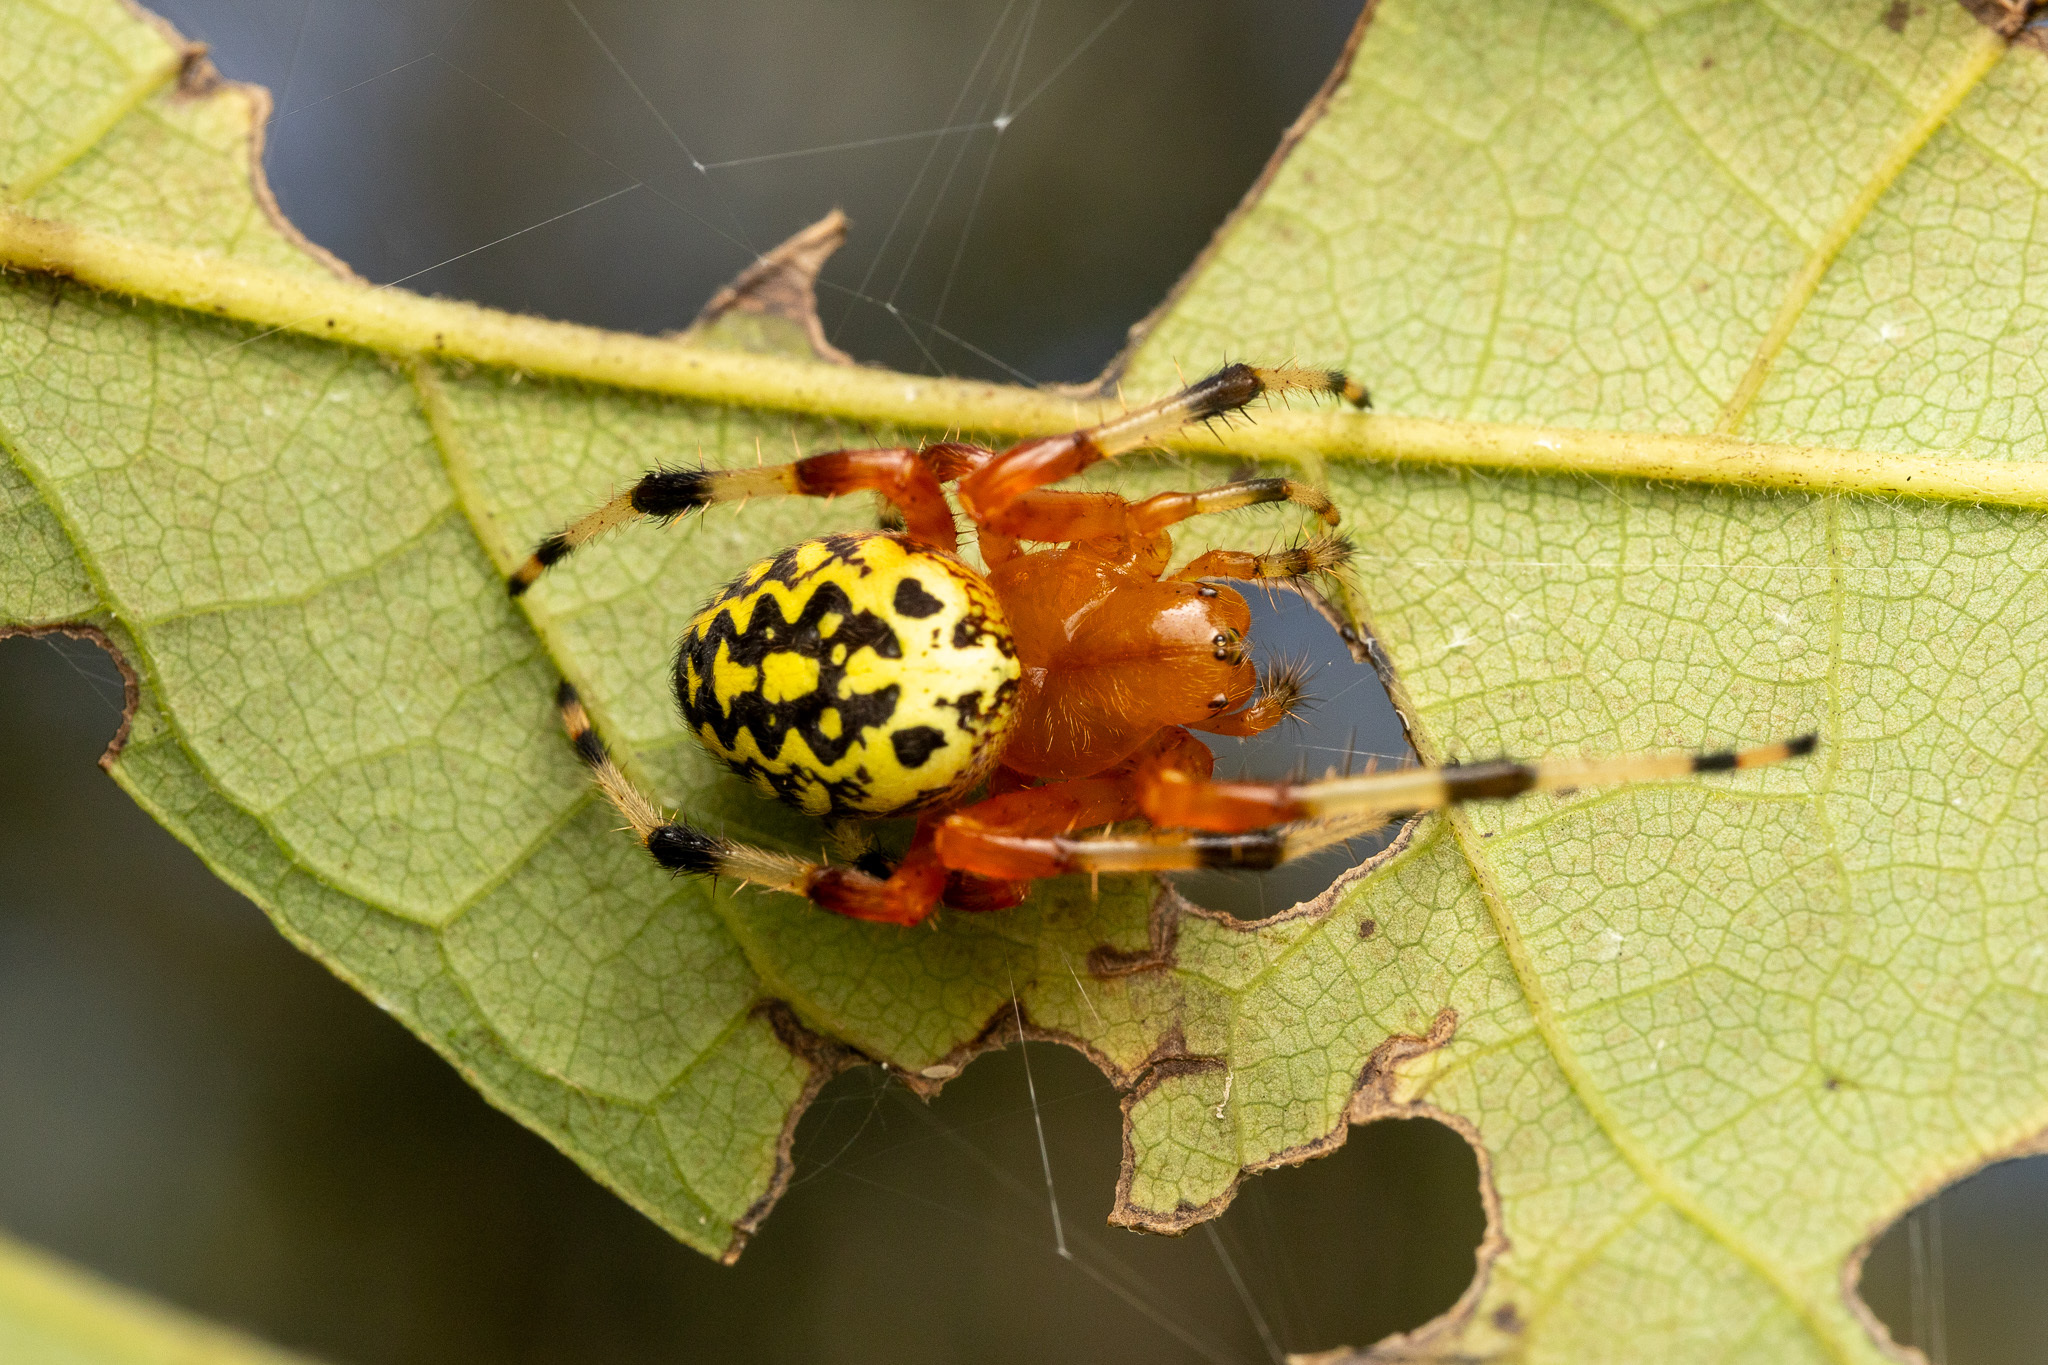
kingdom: Animalia
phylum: Arthropoda
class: Arachnida
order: Araneae
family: Araneidae
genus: Araneus
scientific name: Araneus marmoreus
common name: Marbled orbweaver
